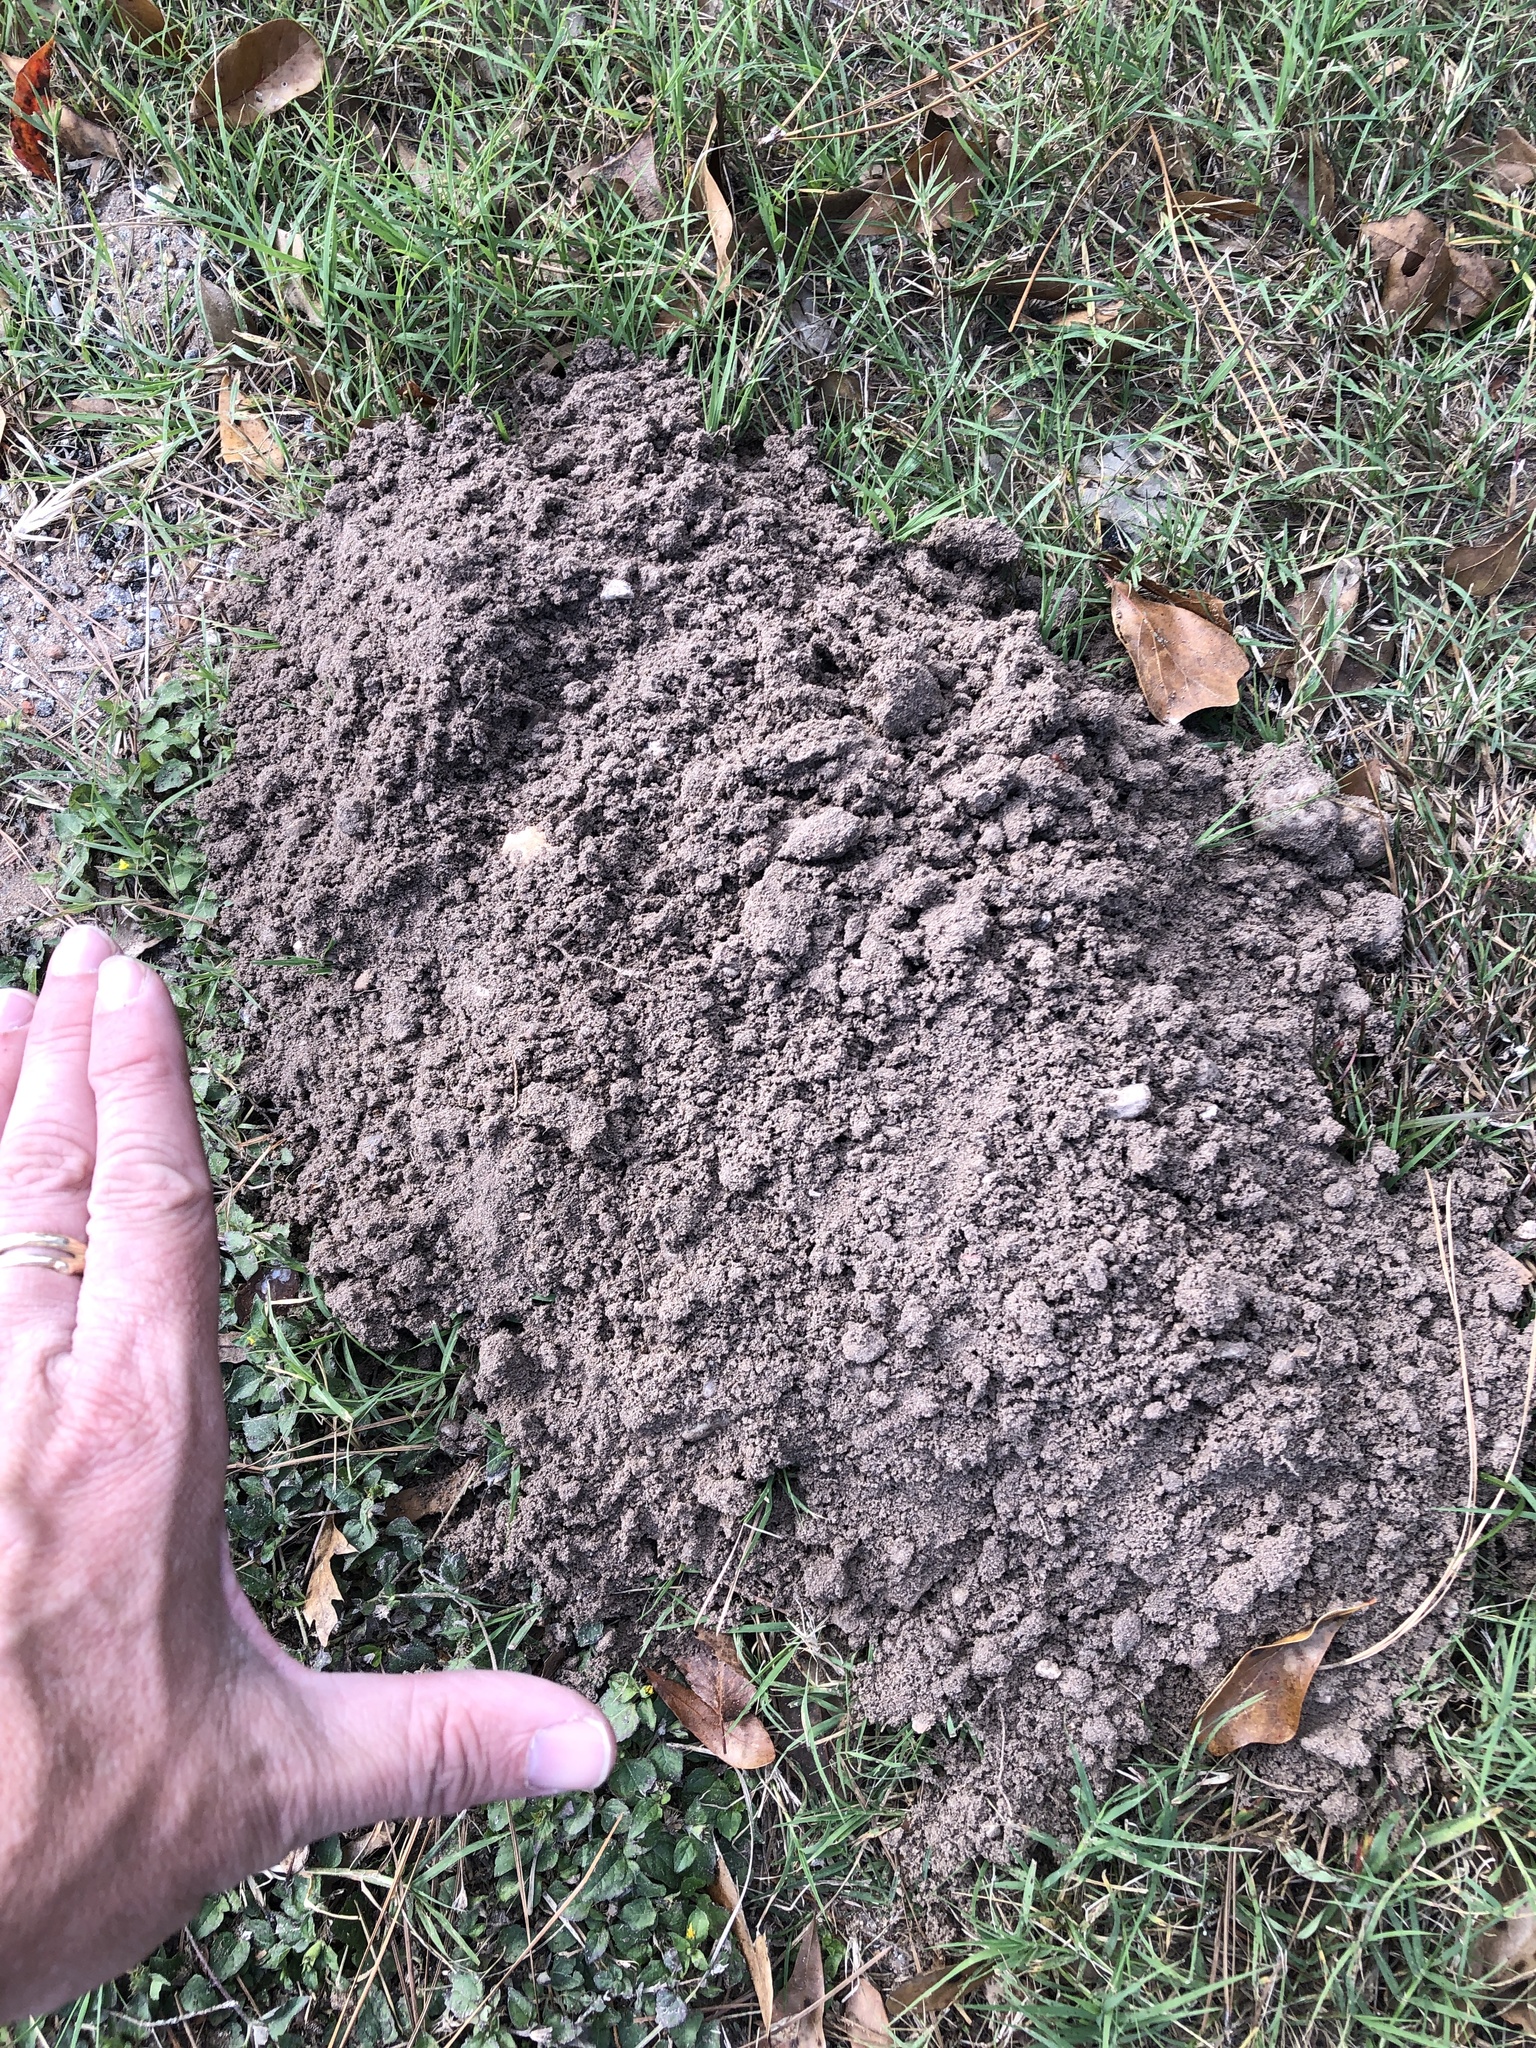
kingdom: Animalia
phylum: Chordata
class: Mammalia
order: Rodentia
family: Geomyidae
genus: Geomys
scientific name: Geomys attwateri
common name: Attwater's pocket gopher
